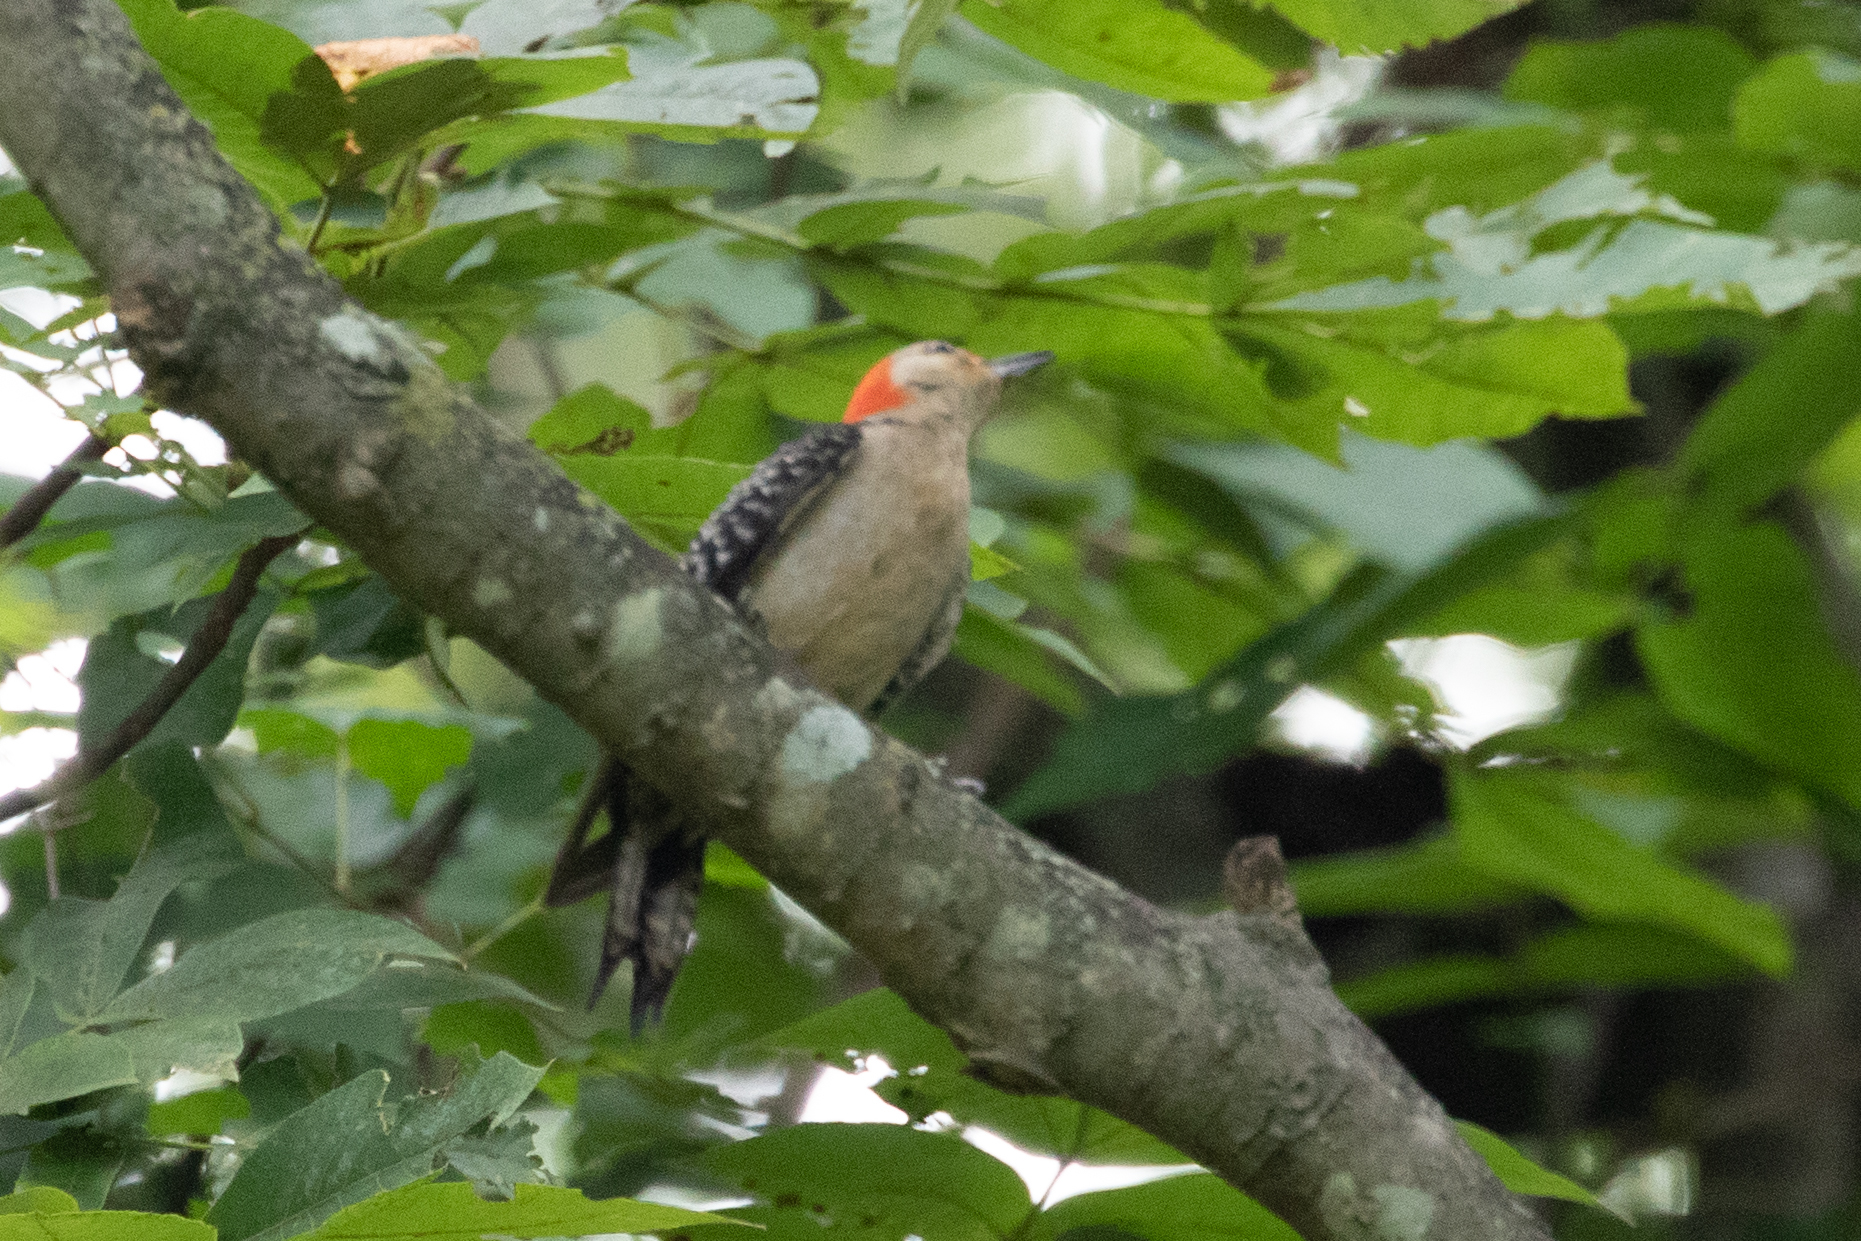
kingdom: Animalia
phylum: Chordata
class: Aves
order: Piciformes
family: Picidae
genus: Melanerpes
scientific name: Melanerpes carolinus
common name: Red-bellied woodpecker
